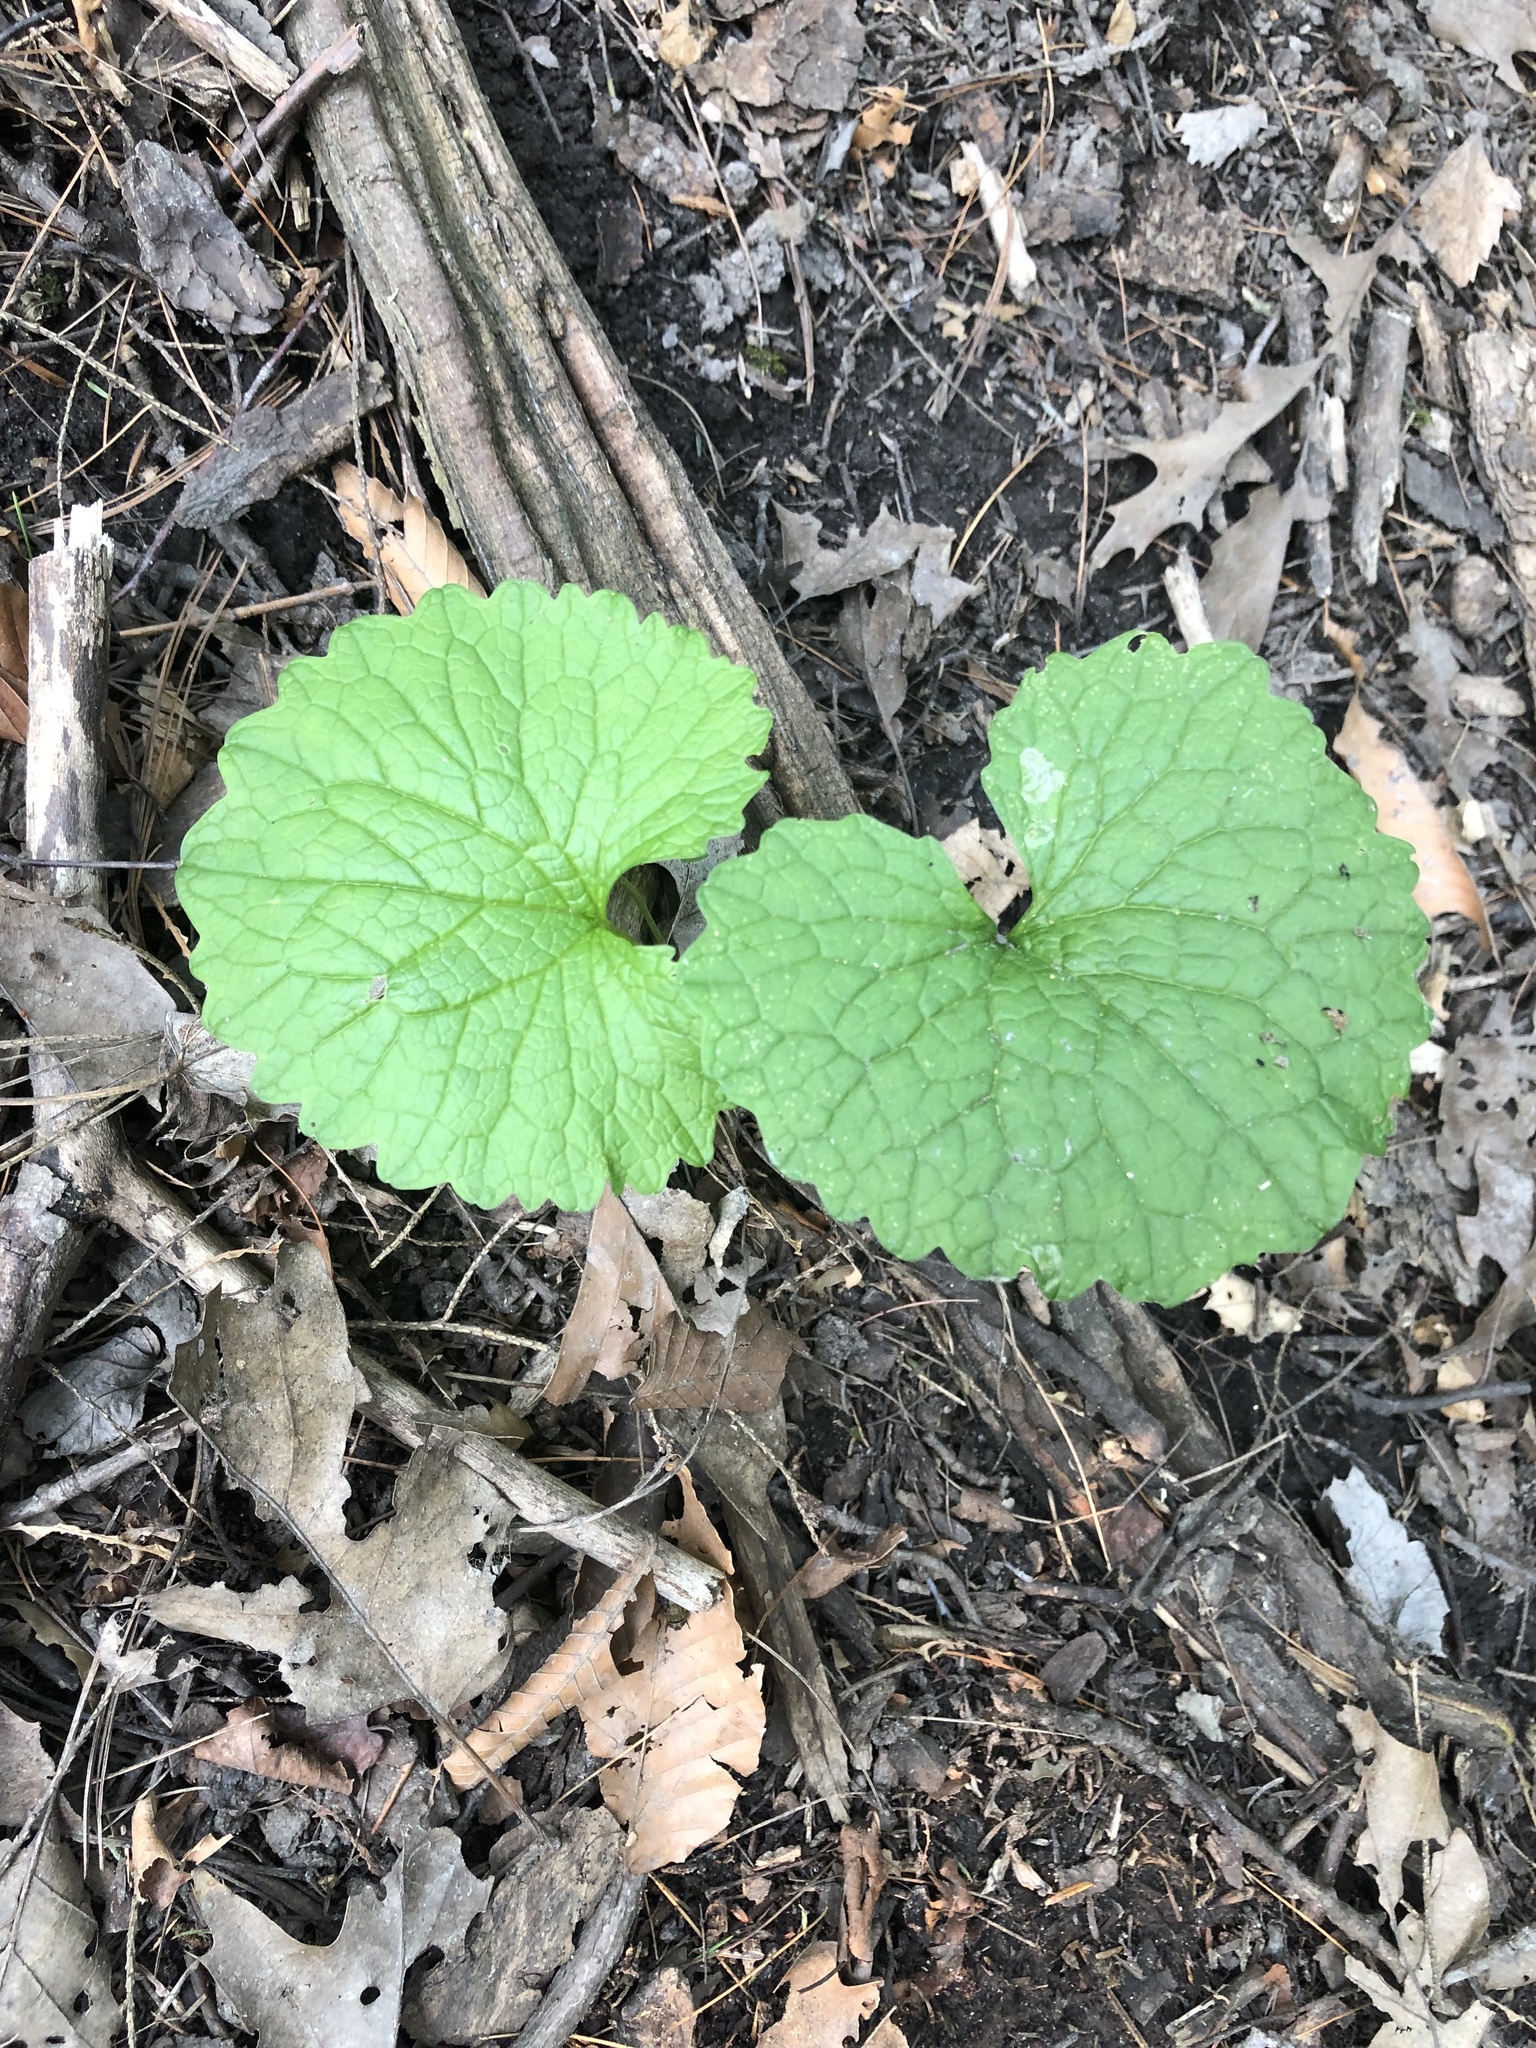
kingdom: Plantae
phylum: Tracheophyta
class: Magnoliopsida
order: Brassicales
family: Brassicaceae
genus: Alliaria
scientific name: Alliaria petiolata
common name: Garlic mustard
